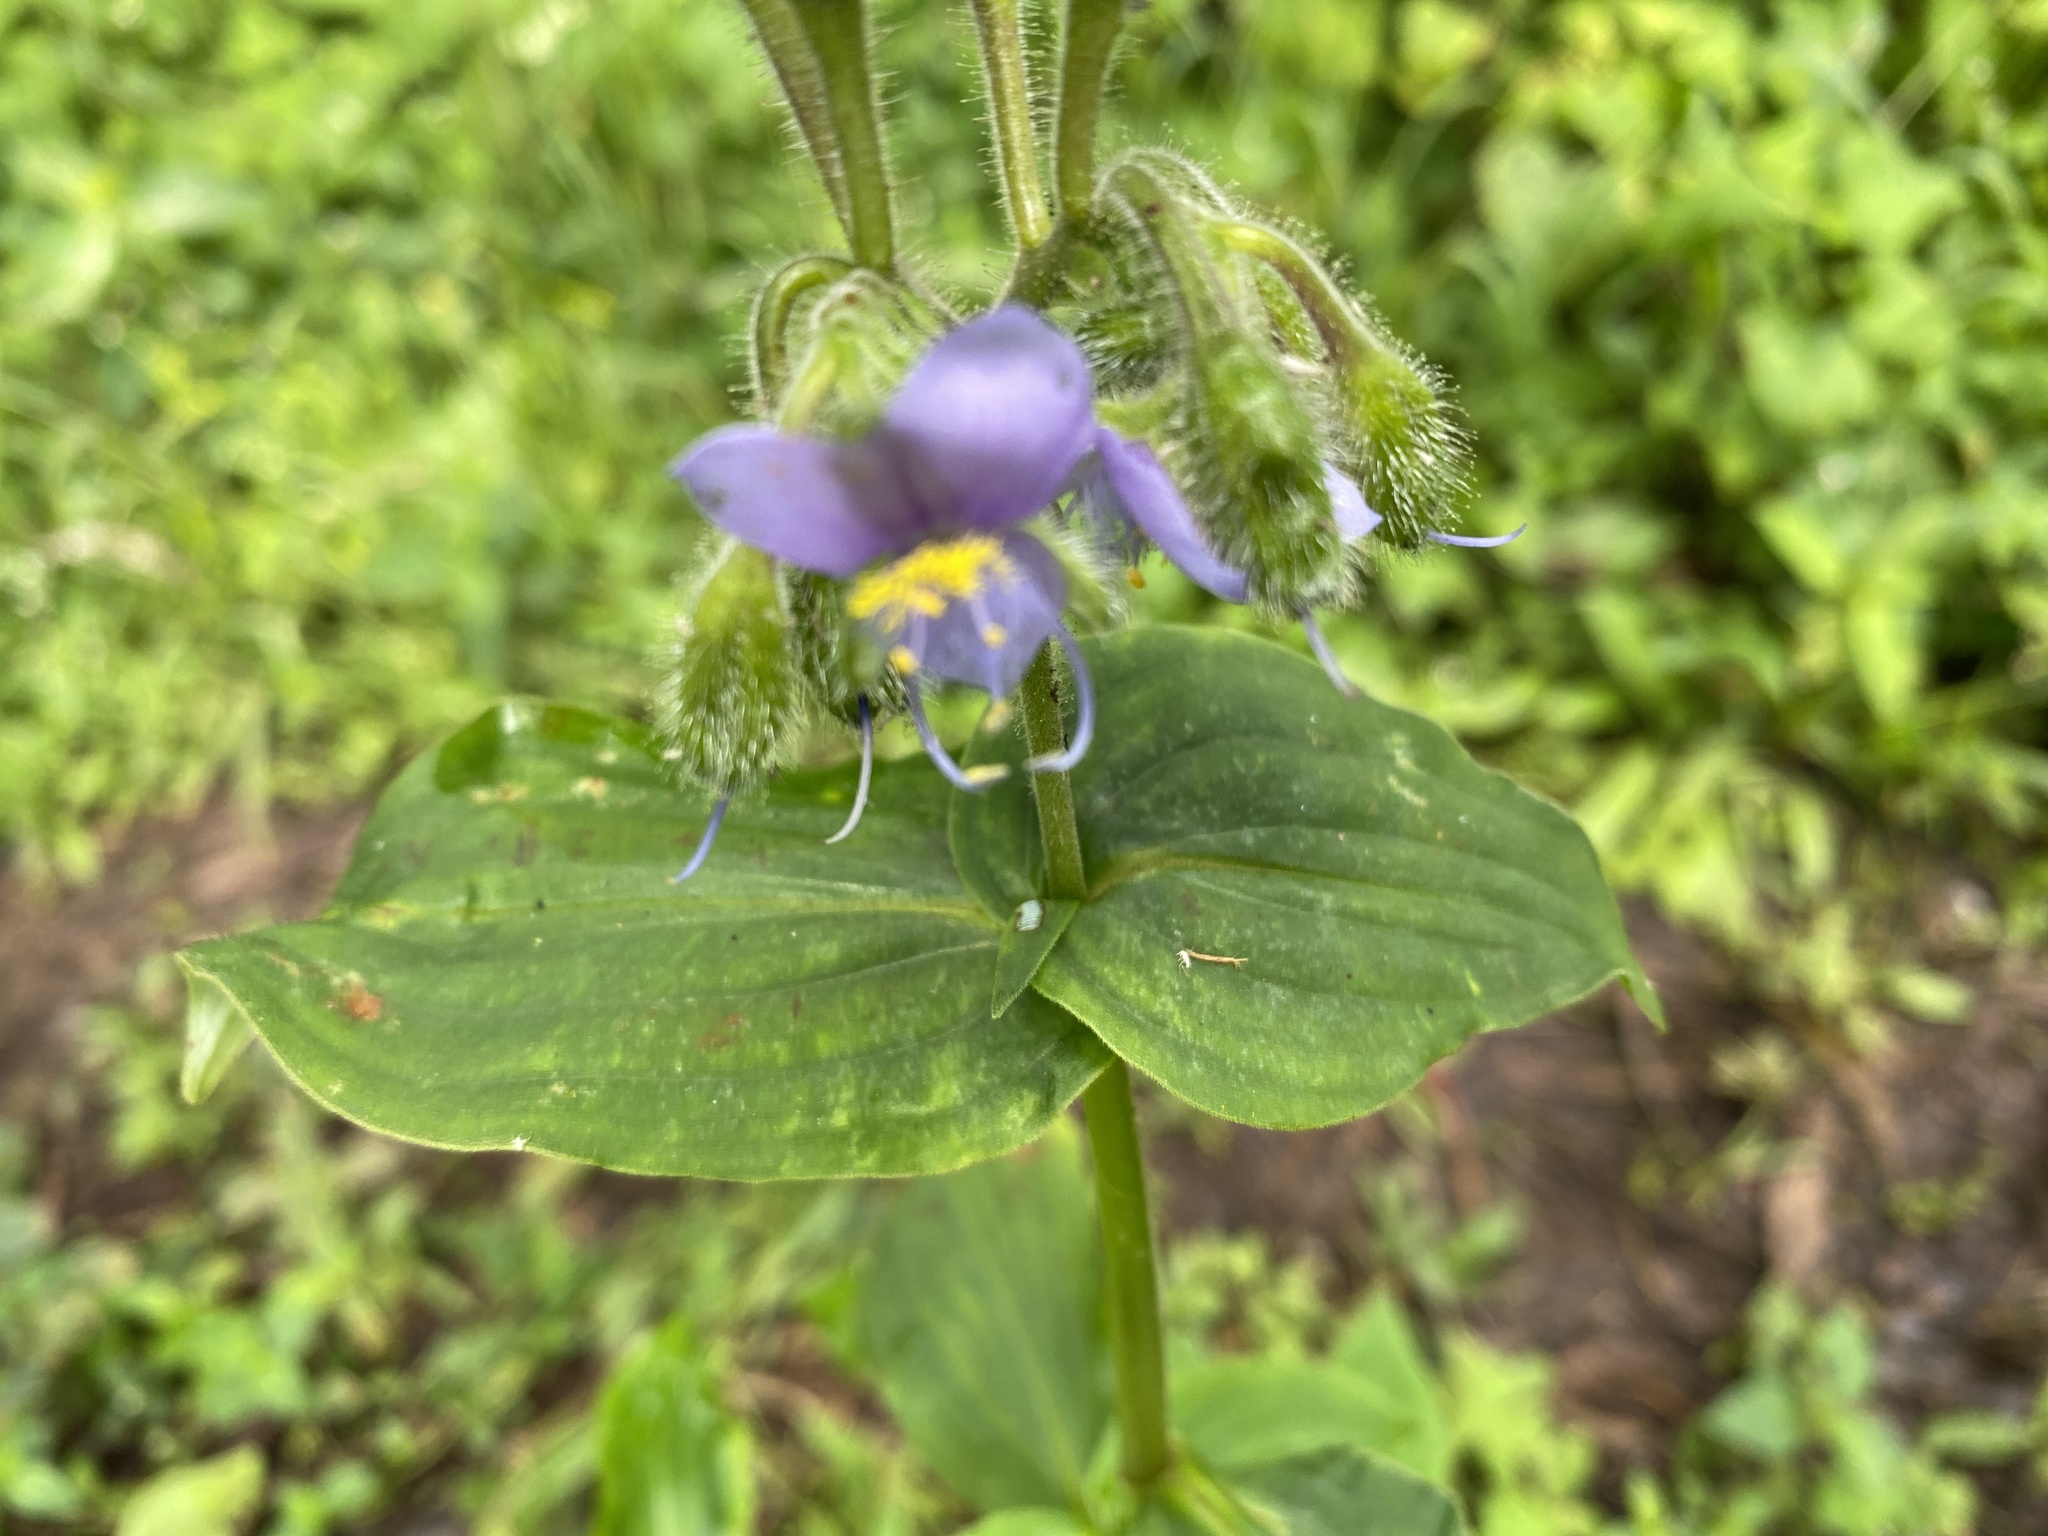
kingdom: Plantae
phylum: Tracheophyta
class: Liliopsida
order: Commelinales
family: Commelinaceae
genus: Tinantia
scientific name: Tinantia erecta
